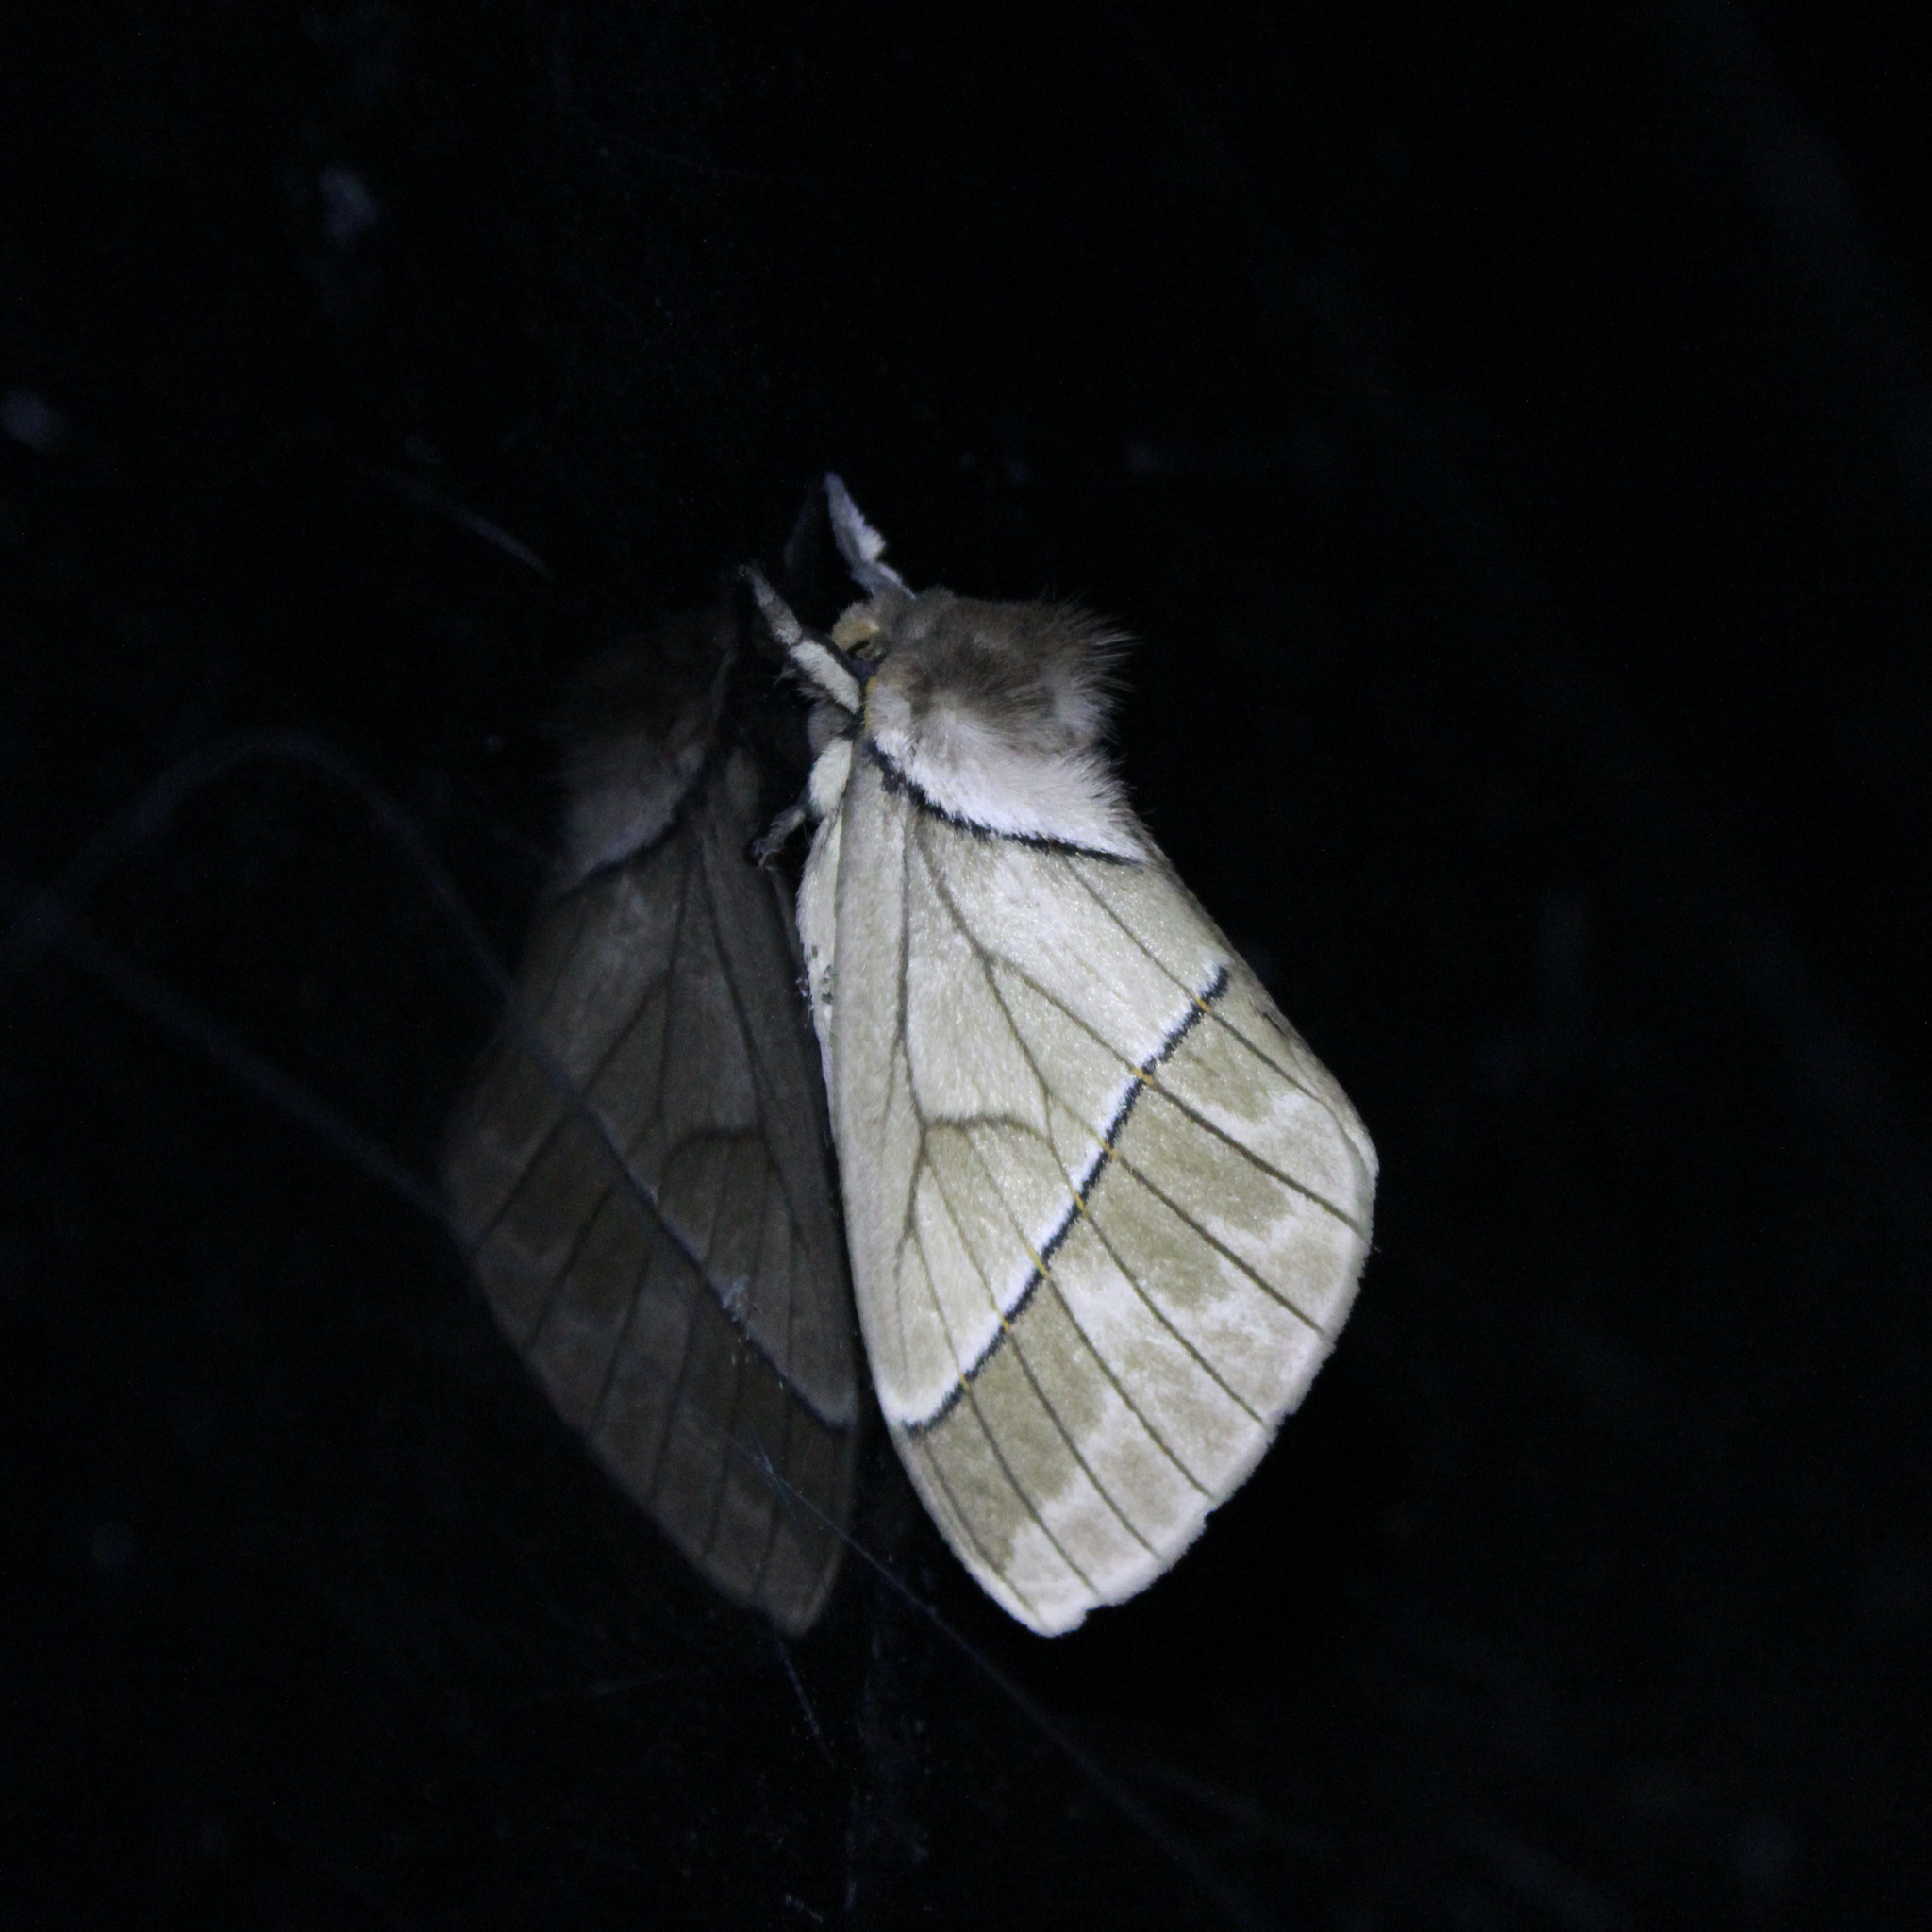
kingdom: Animalia
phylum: Arthropoda
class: Insecta
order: Lepidoptera
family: Saturniidae
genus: Pseudodirphia
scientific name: Pseudodirphia obliqua
